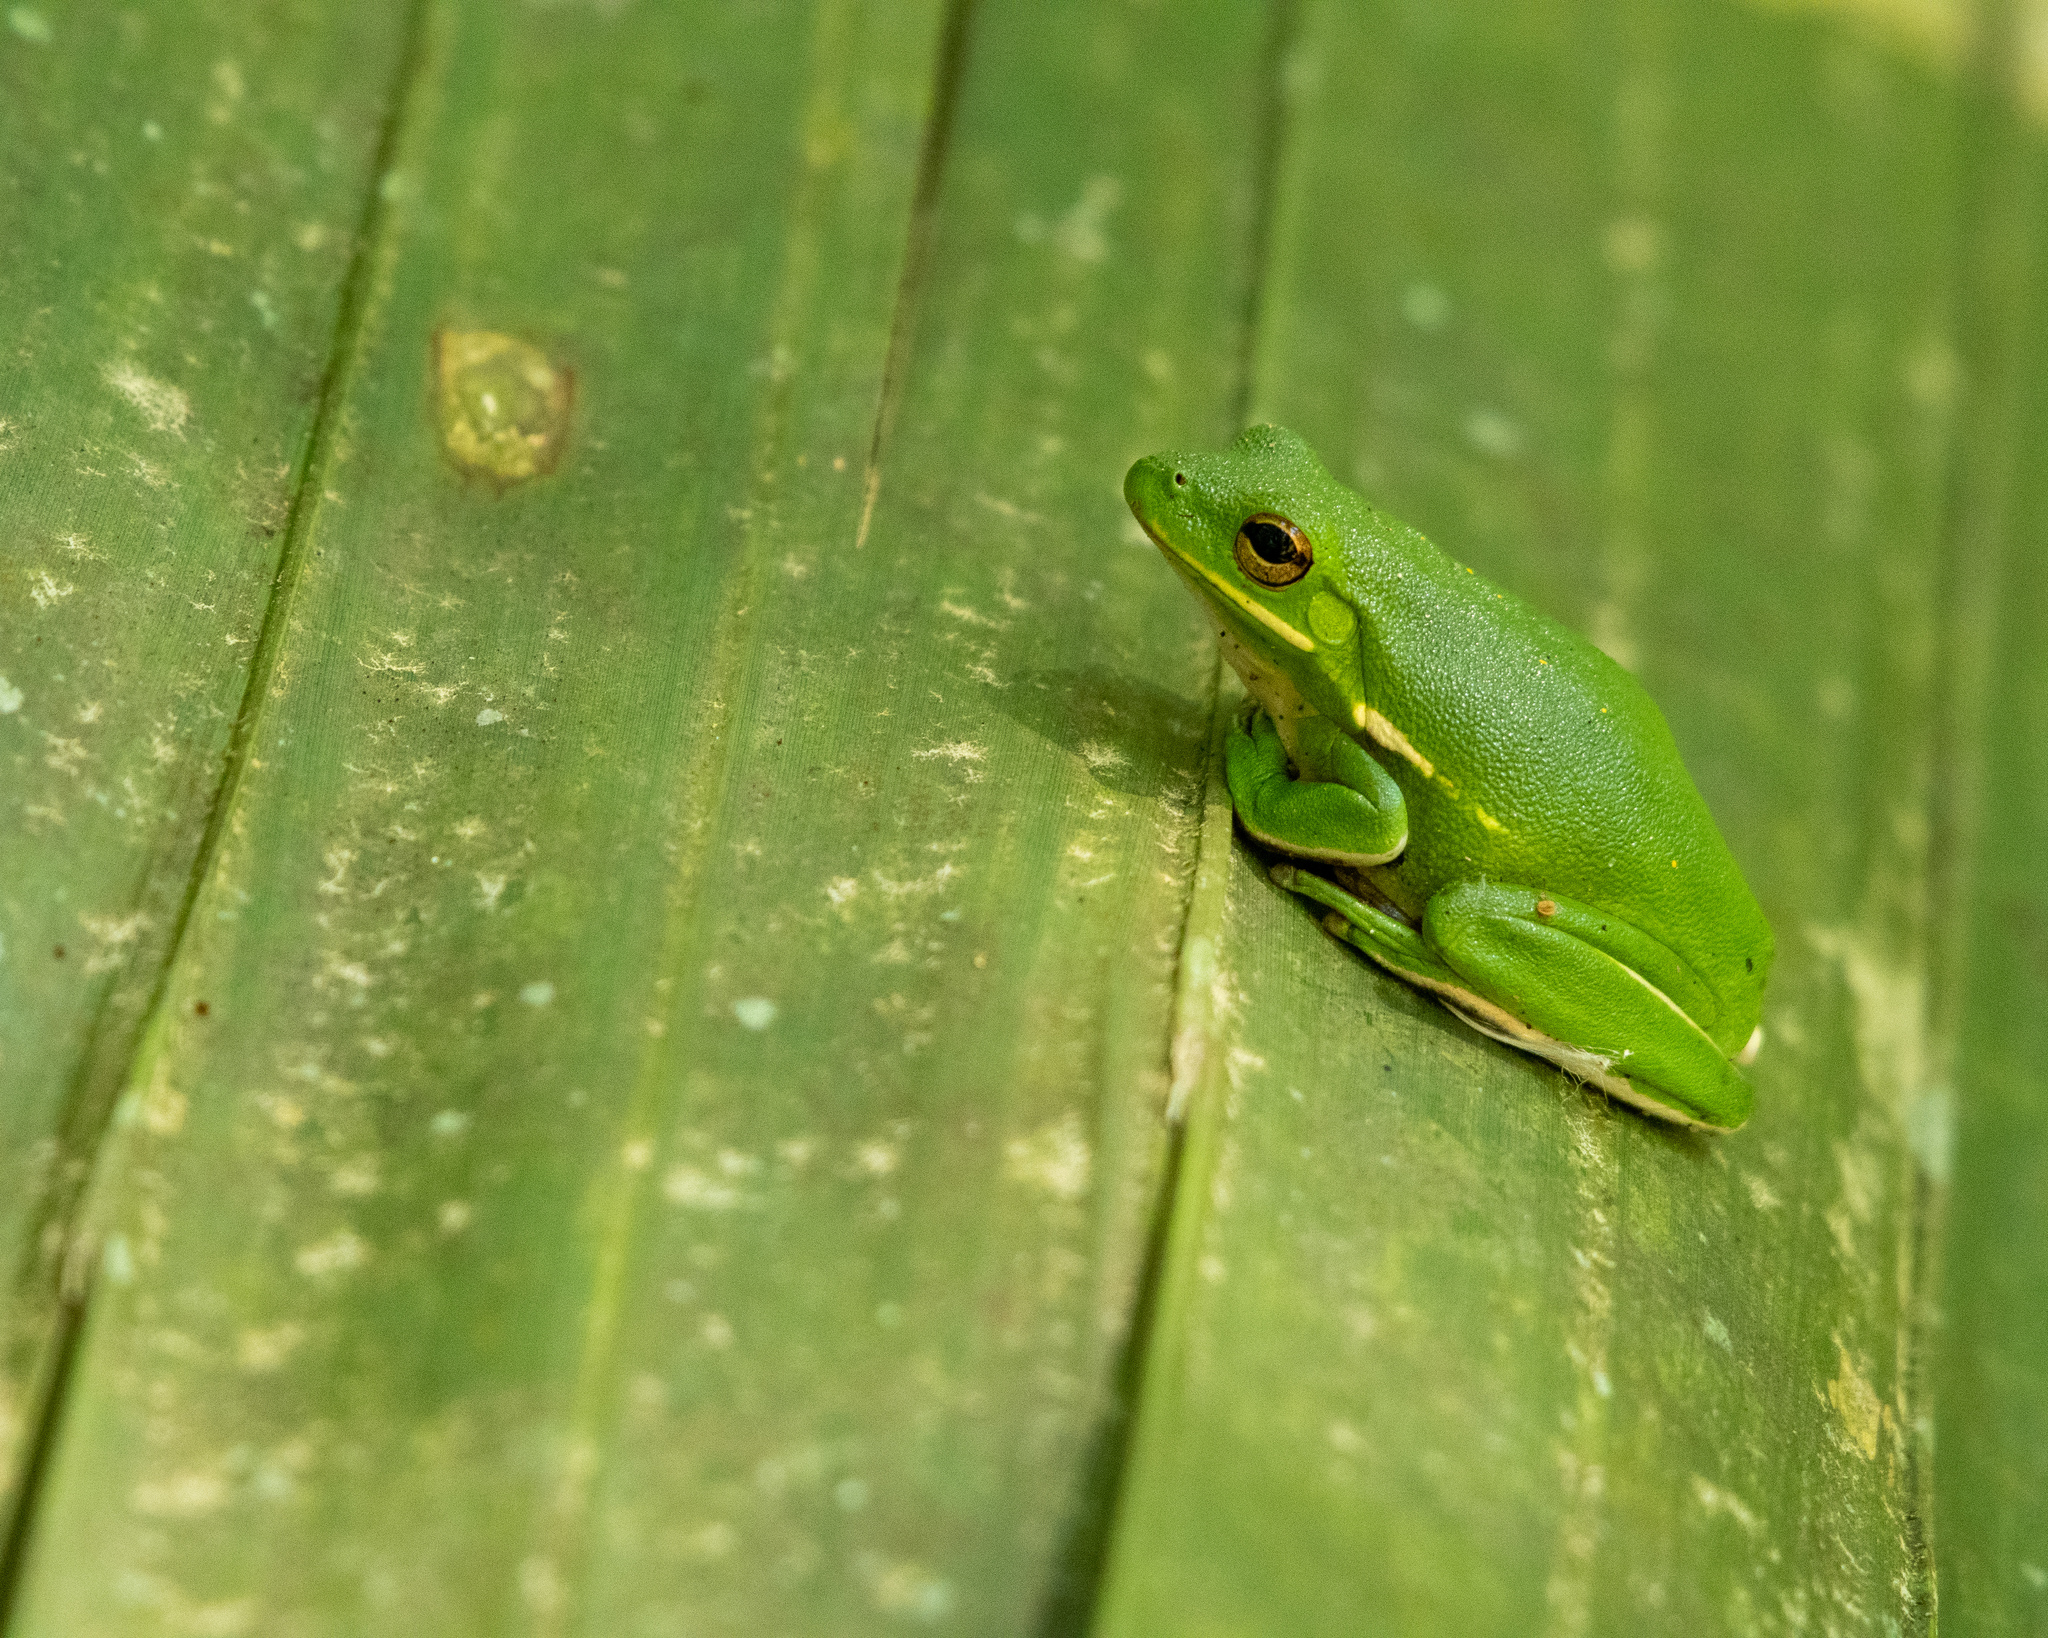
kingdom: Animalia
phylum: Chordata
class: Amphibia
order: Anura
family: Hylidae
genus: Dryophytes
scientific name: Dryophytes cinereus
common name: Green treefrog
